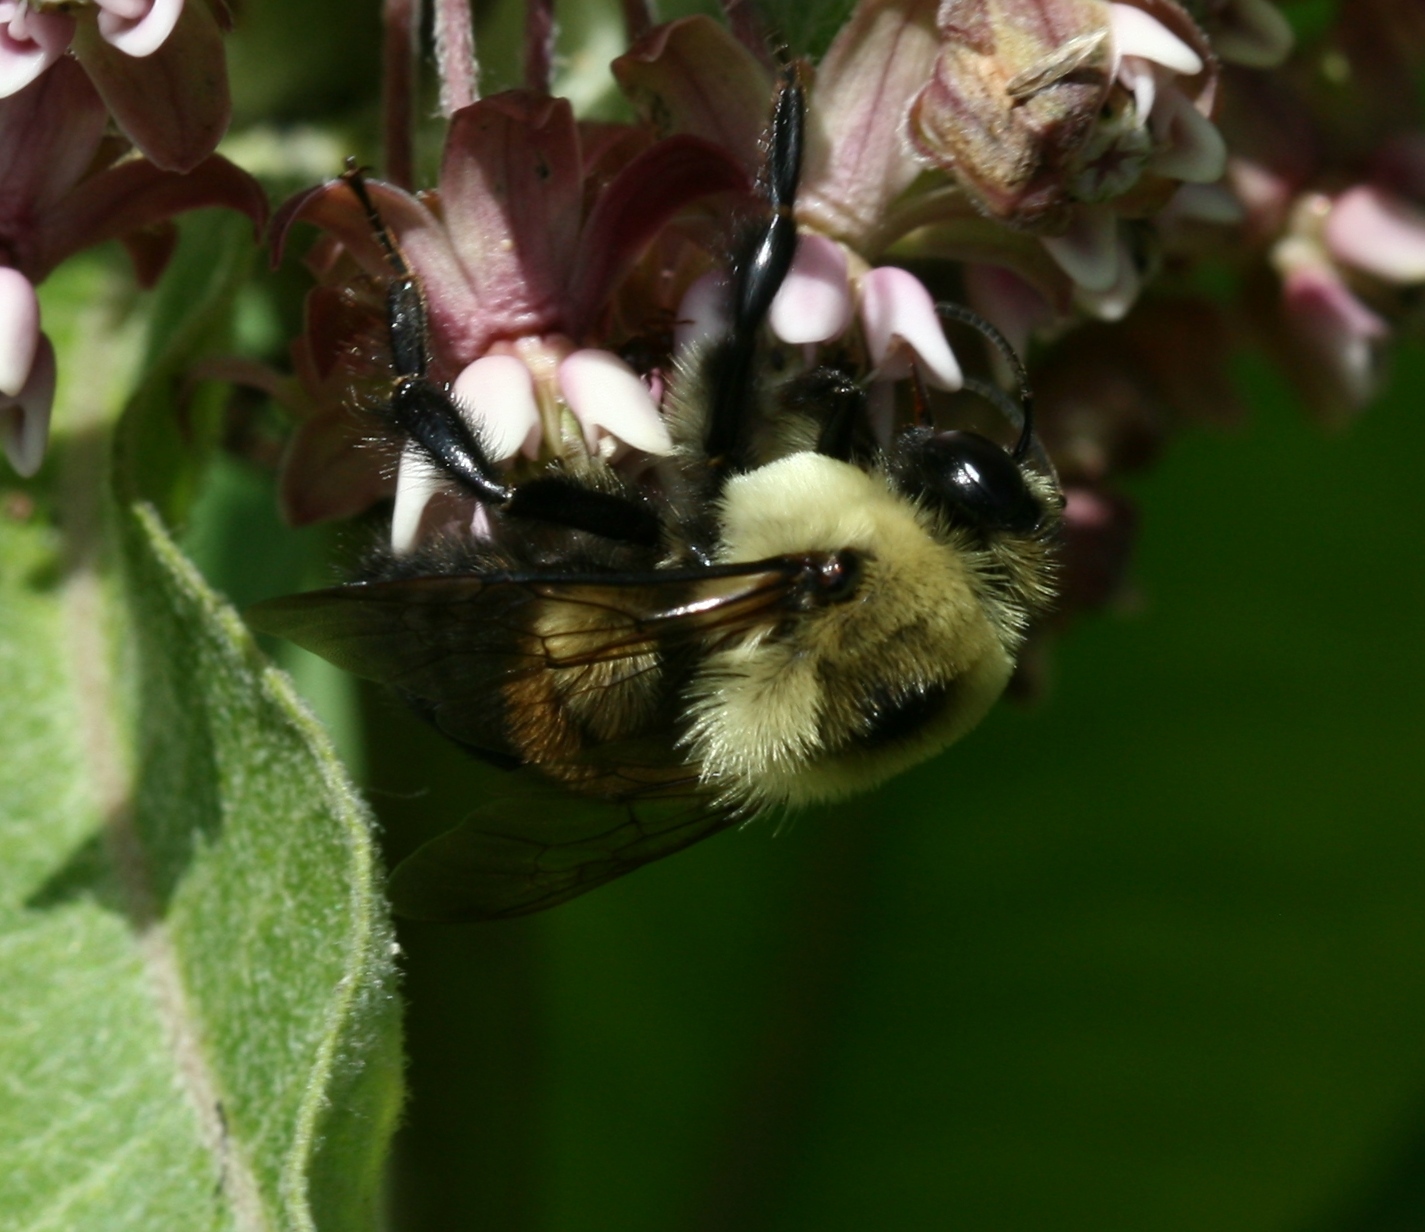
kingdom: Animalia
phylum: Arthropoda
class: Insecta
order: Hymenoptera
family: Apidae
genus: Bombus
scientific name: Bombus griseocollis
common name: Brown-belted bumble bee
